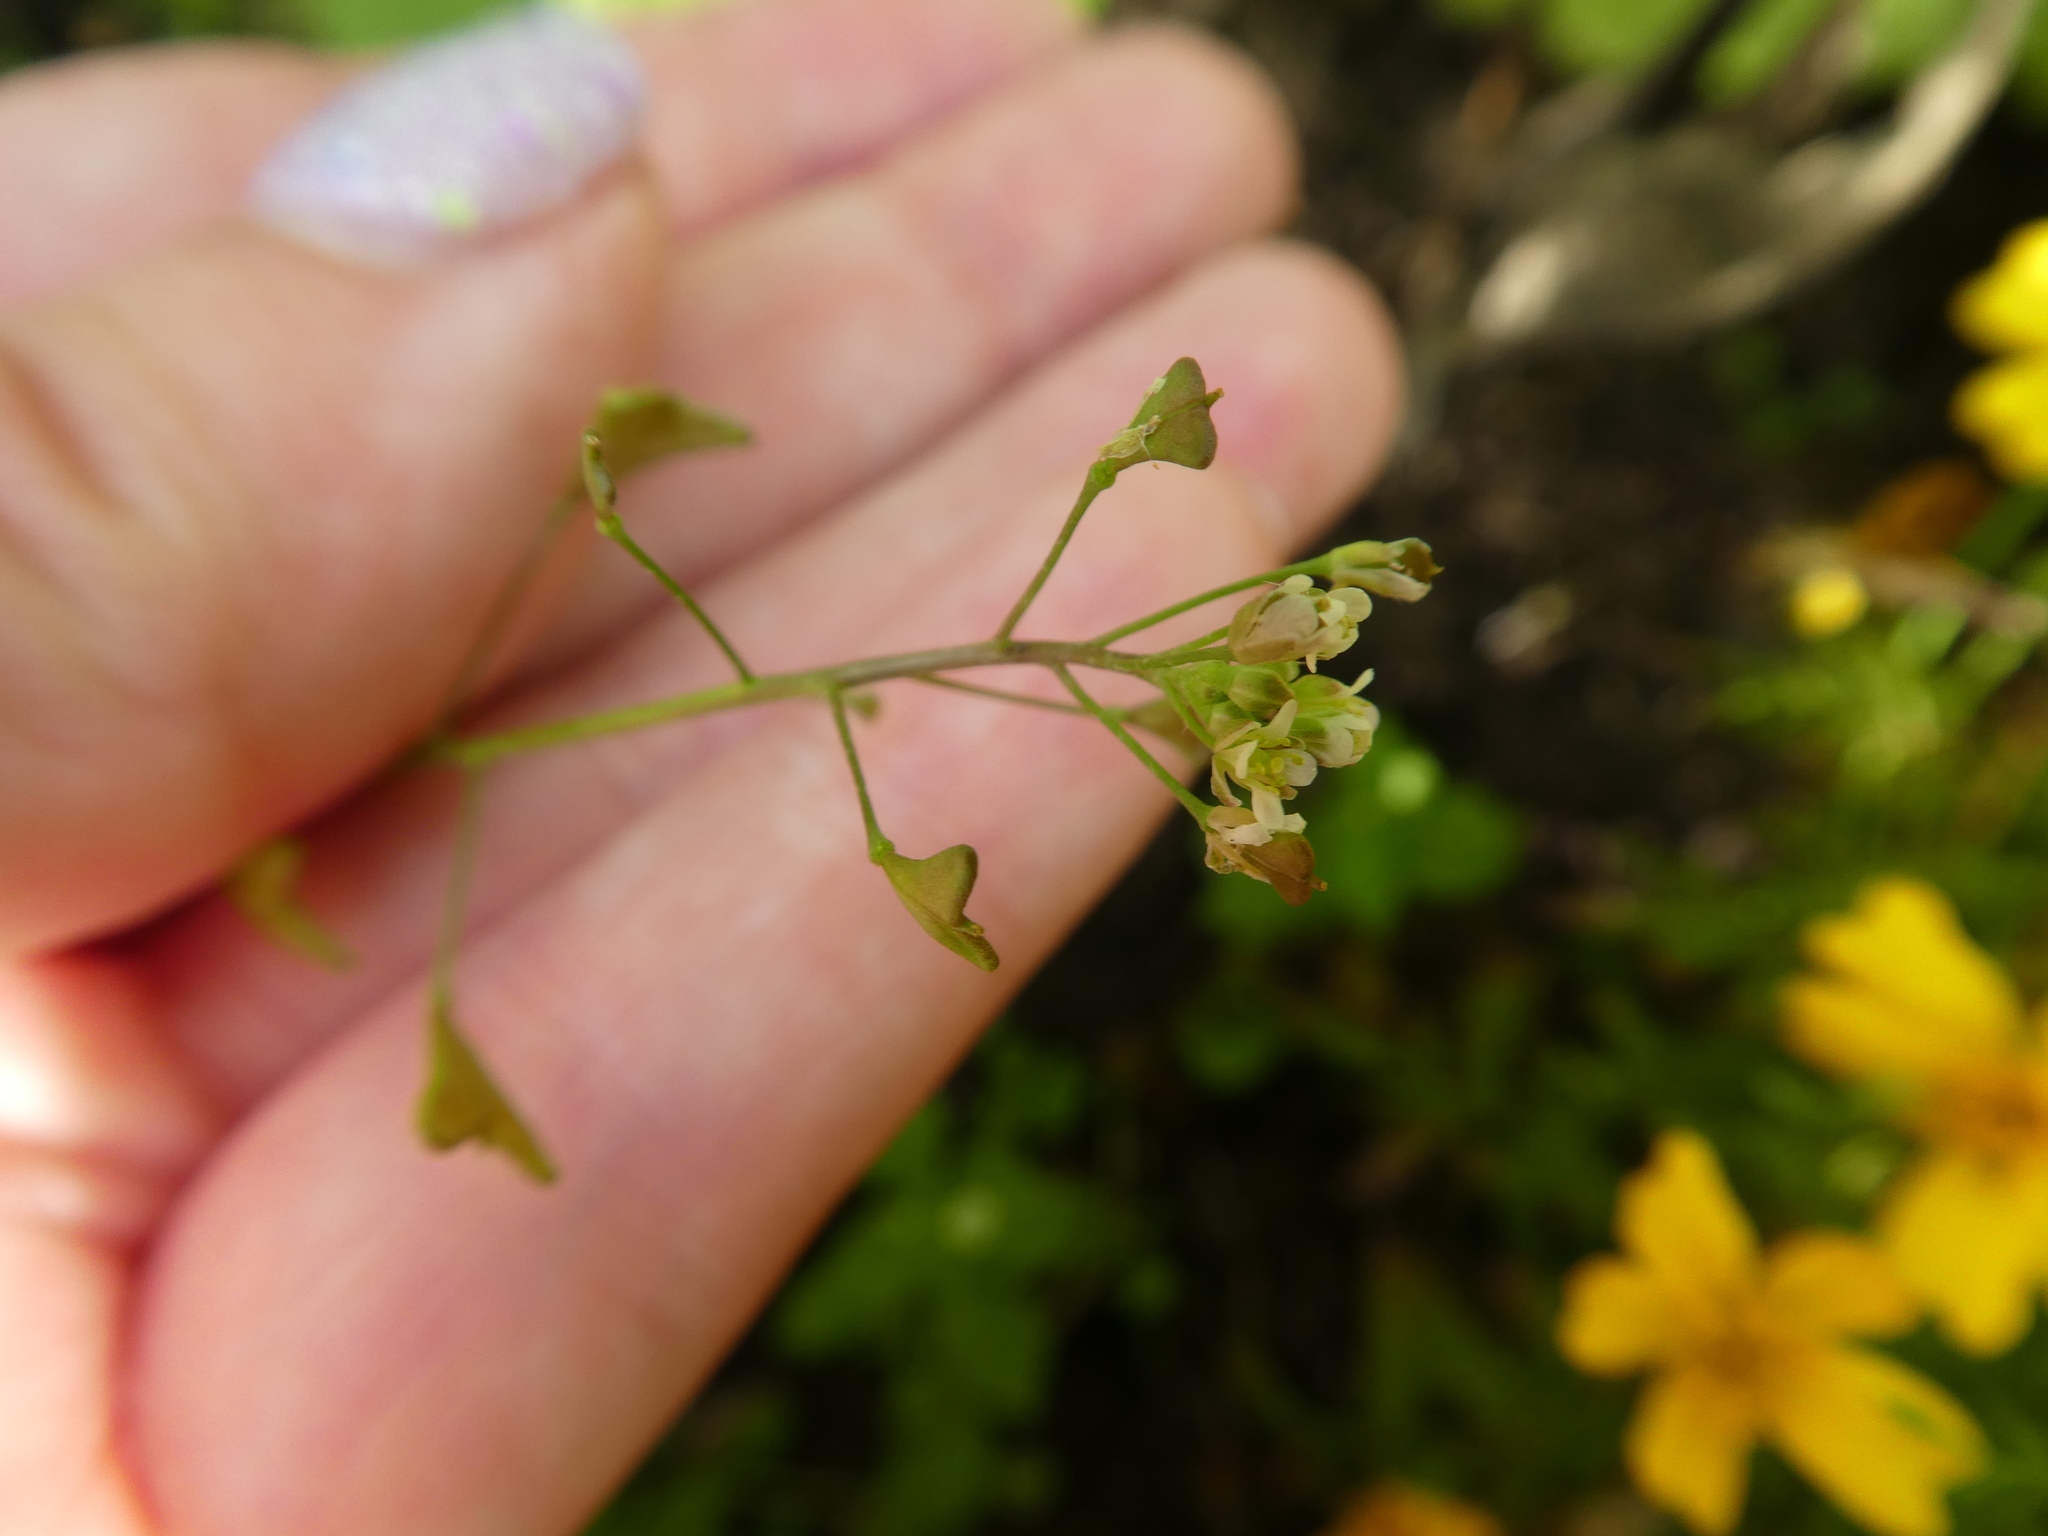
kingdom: Plantae
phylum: Tracheophyta
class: Magnoliopsida
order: Brassicales
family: Brassicaceae
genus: Capsella
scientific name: Capsella bursa-pastoris
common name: Shepherd's purse
